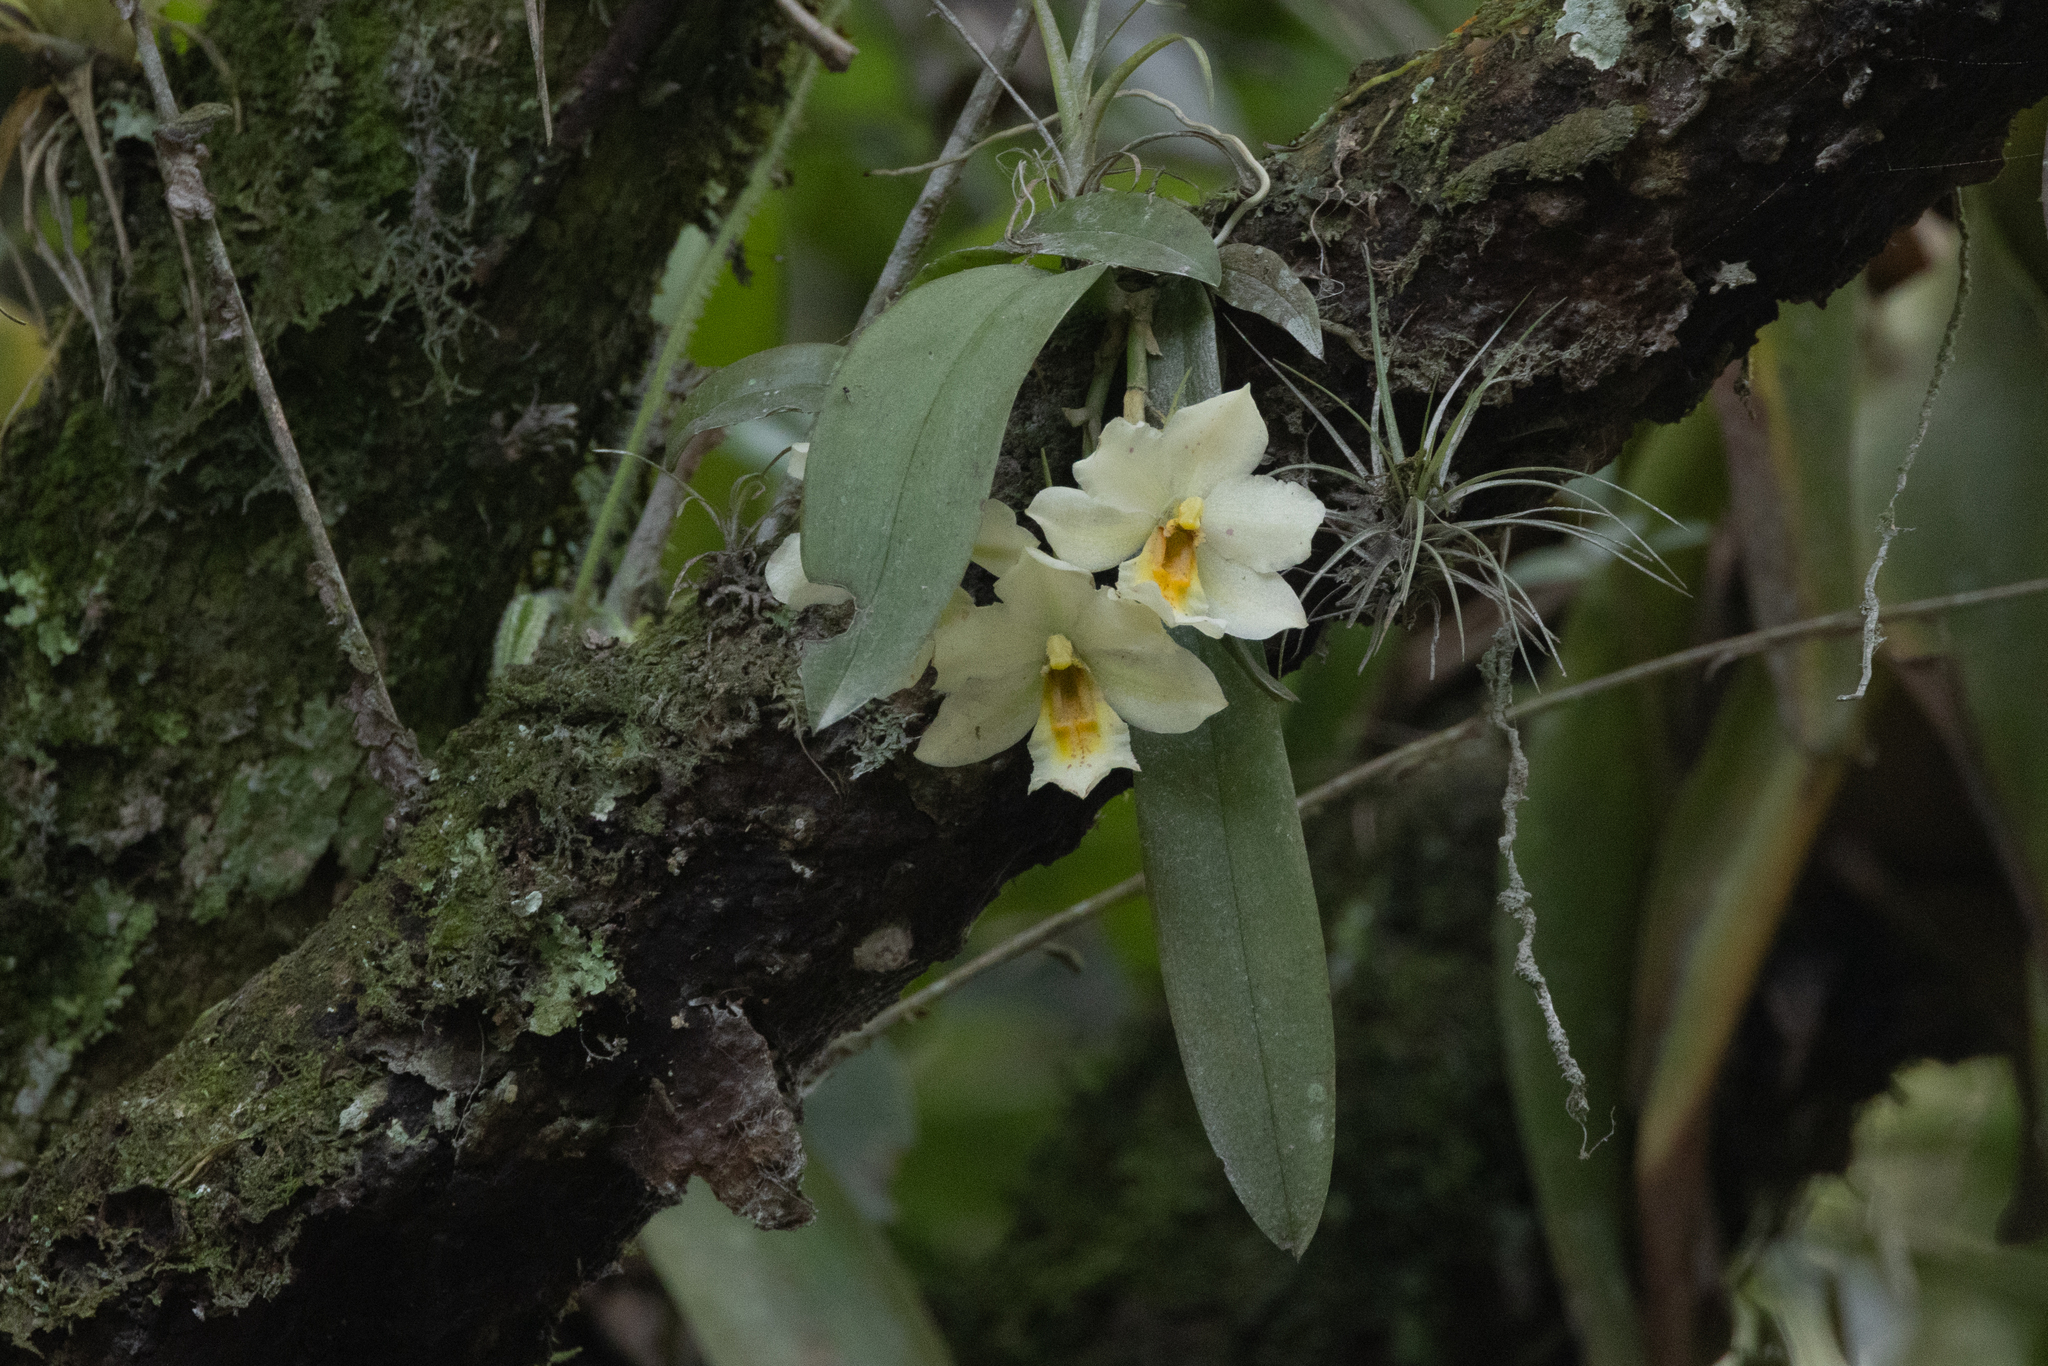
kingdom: Plantae
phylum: Tracheophyta
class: Liliopsida
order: Asparagales
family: Orchidaceae
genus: Trichocentrum
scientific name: Trichocentrum pulchrum
